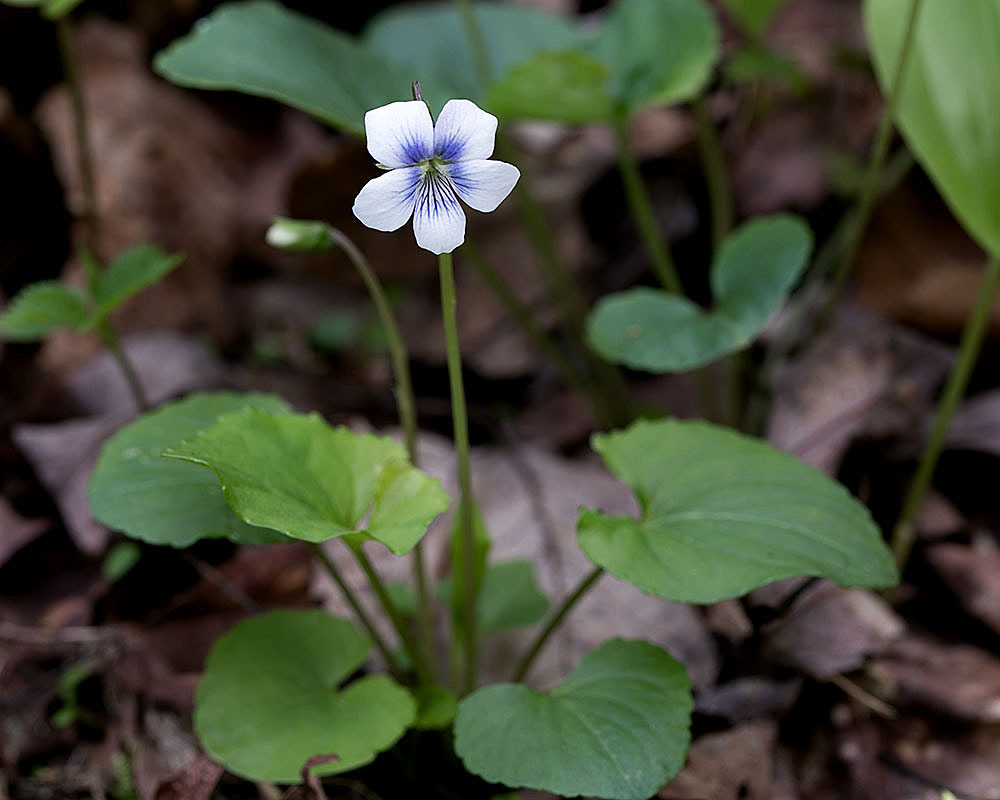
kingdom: Plantae
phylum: Tracheophyta
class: Magnoliopsida
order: Malpighiales
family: Violaceae
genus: Viola
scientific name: Viola sororia
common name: Dooryard violet
